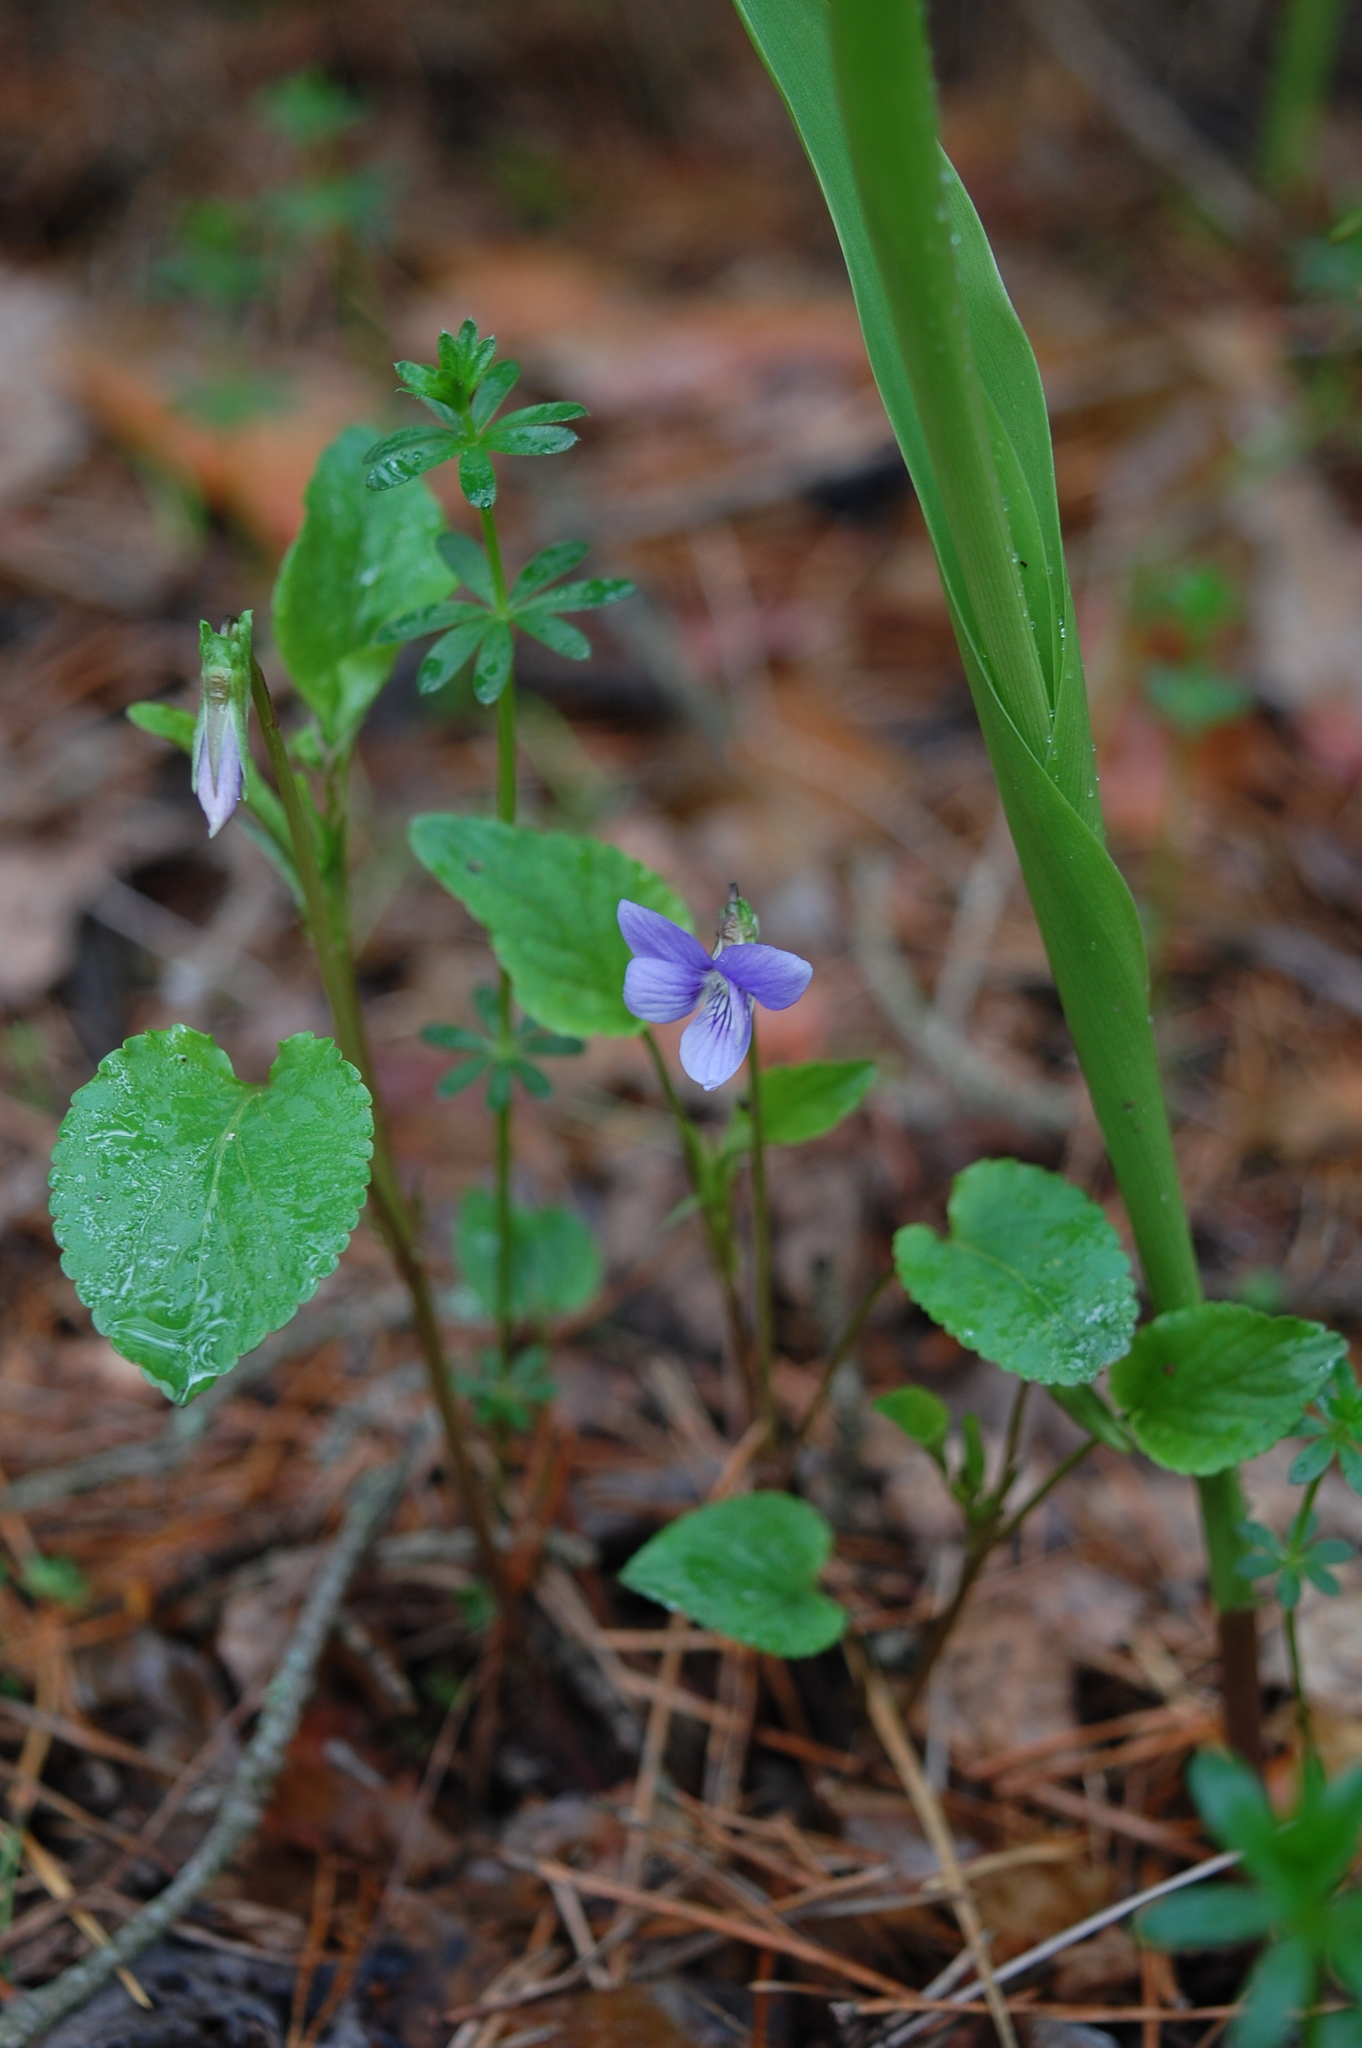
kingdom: Plantae
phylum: Tracheophyta
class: Magnoliopsida
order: Malpighiales
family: Violaceae
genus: Viola
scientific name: Viola canina
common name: Heath dog-violet
